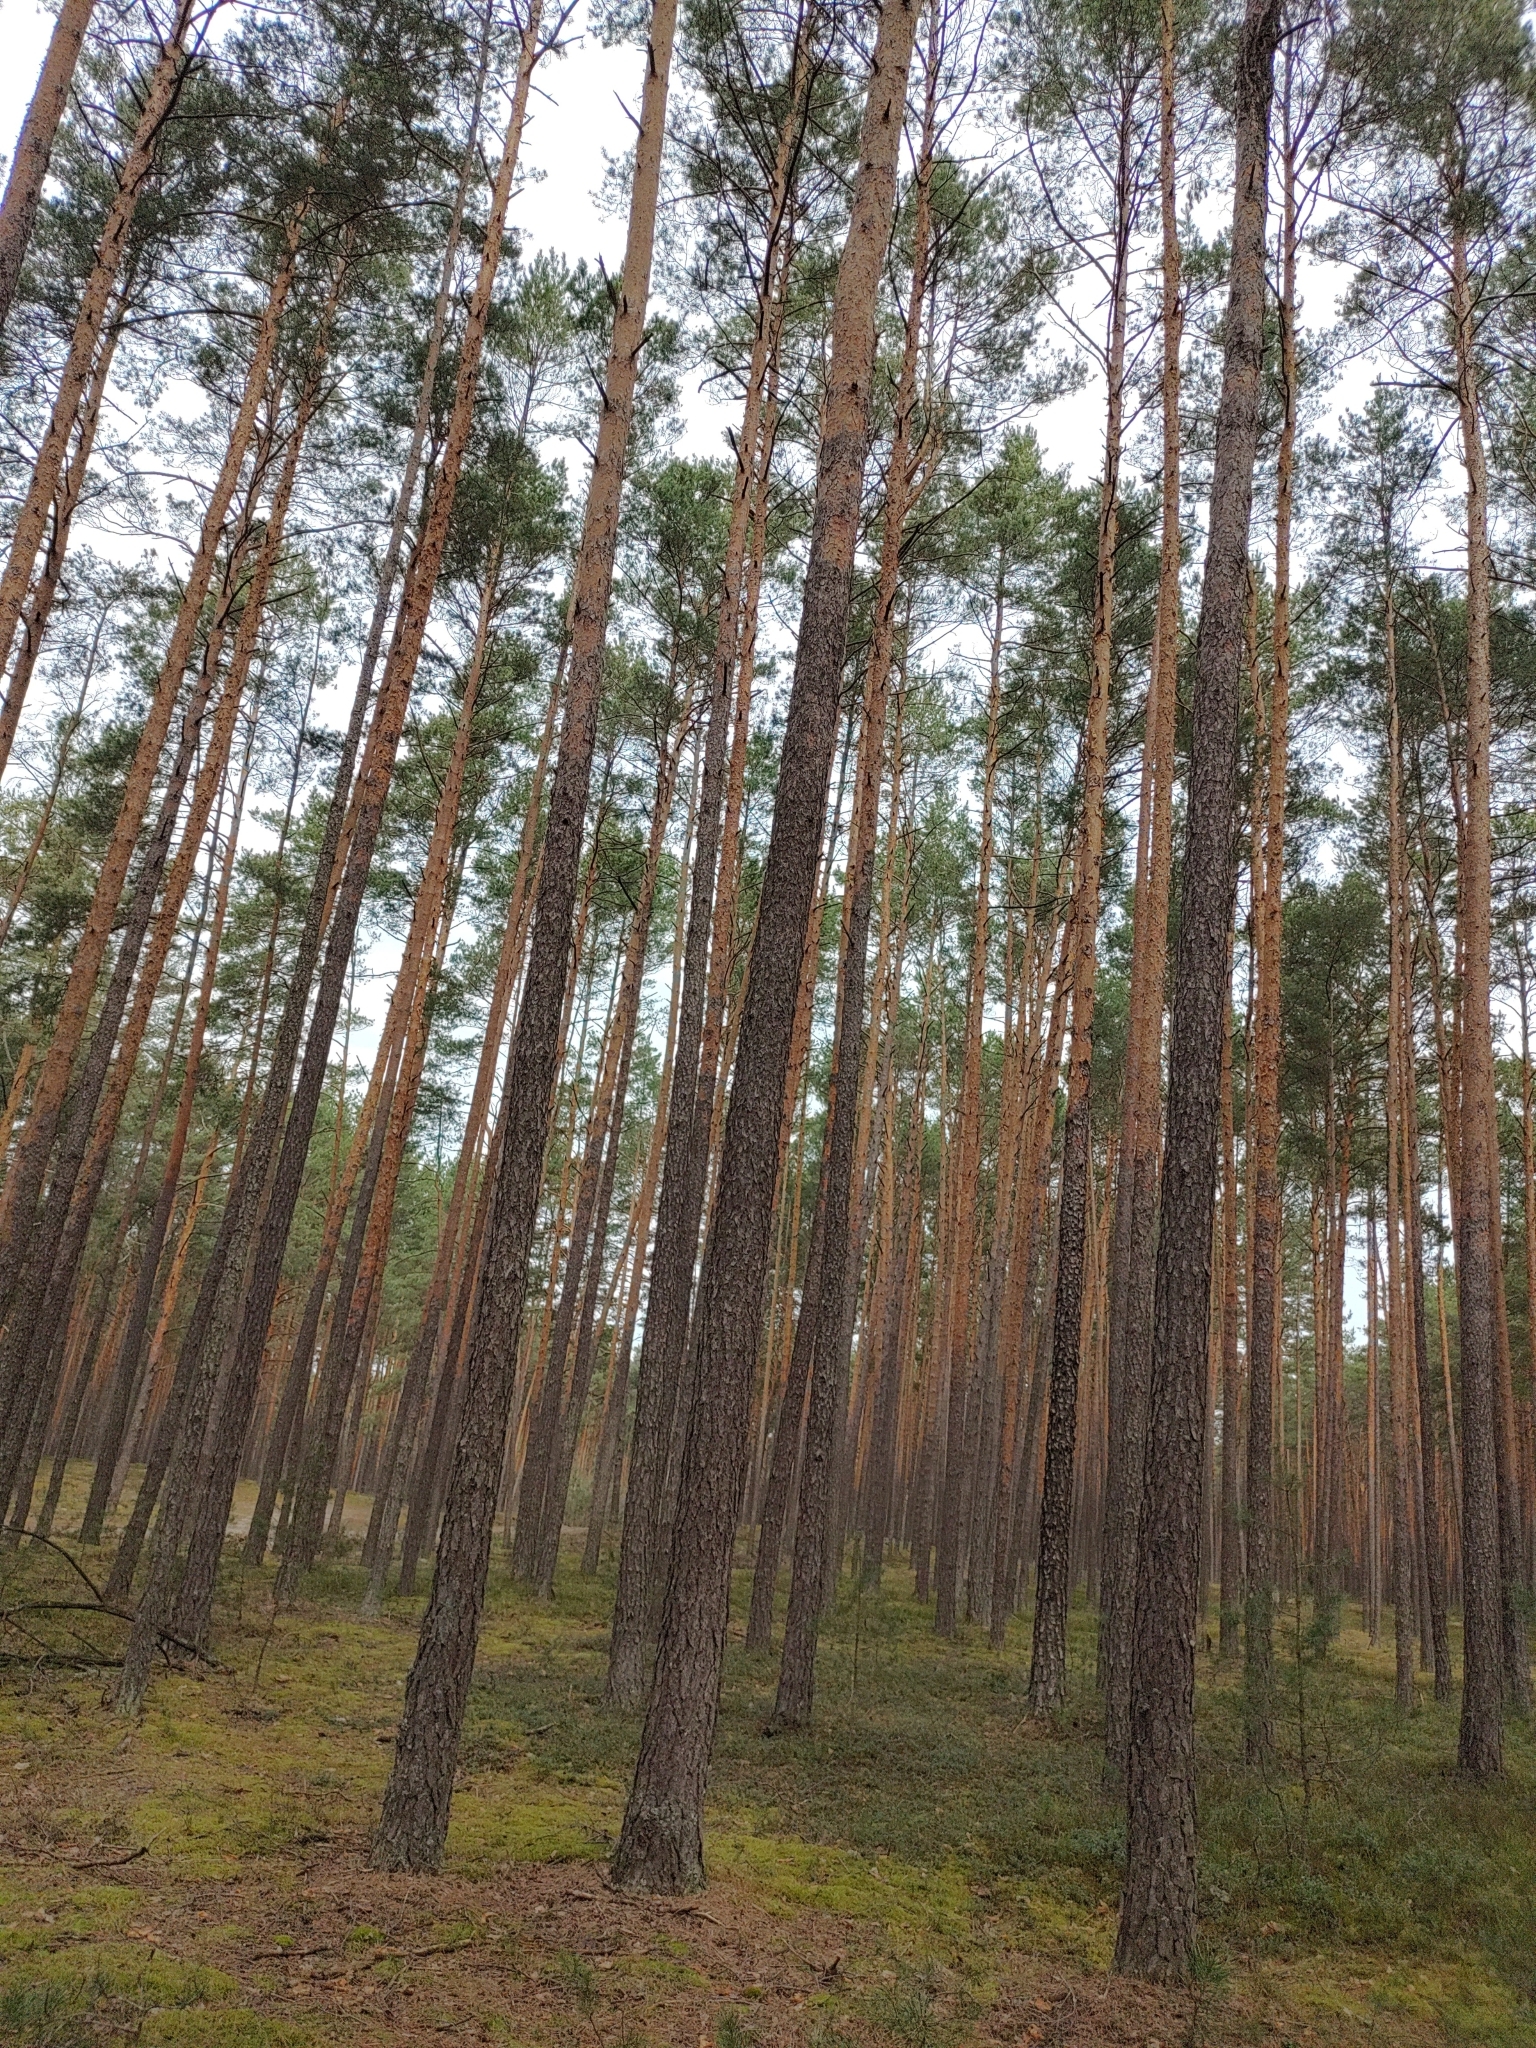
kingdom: Animalia
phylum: Chordata
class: Aves
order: Passeriformes
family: Fringillidae
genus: Fringilla
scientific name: Fringilla coelebs
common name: Common chaffinch
